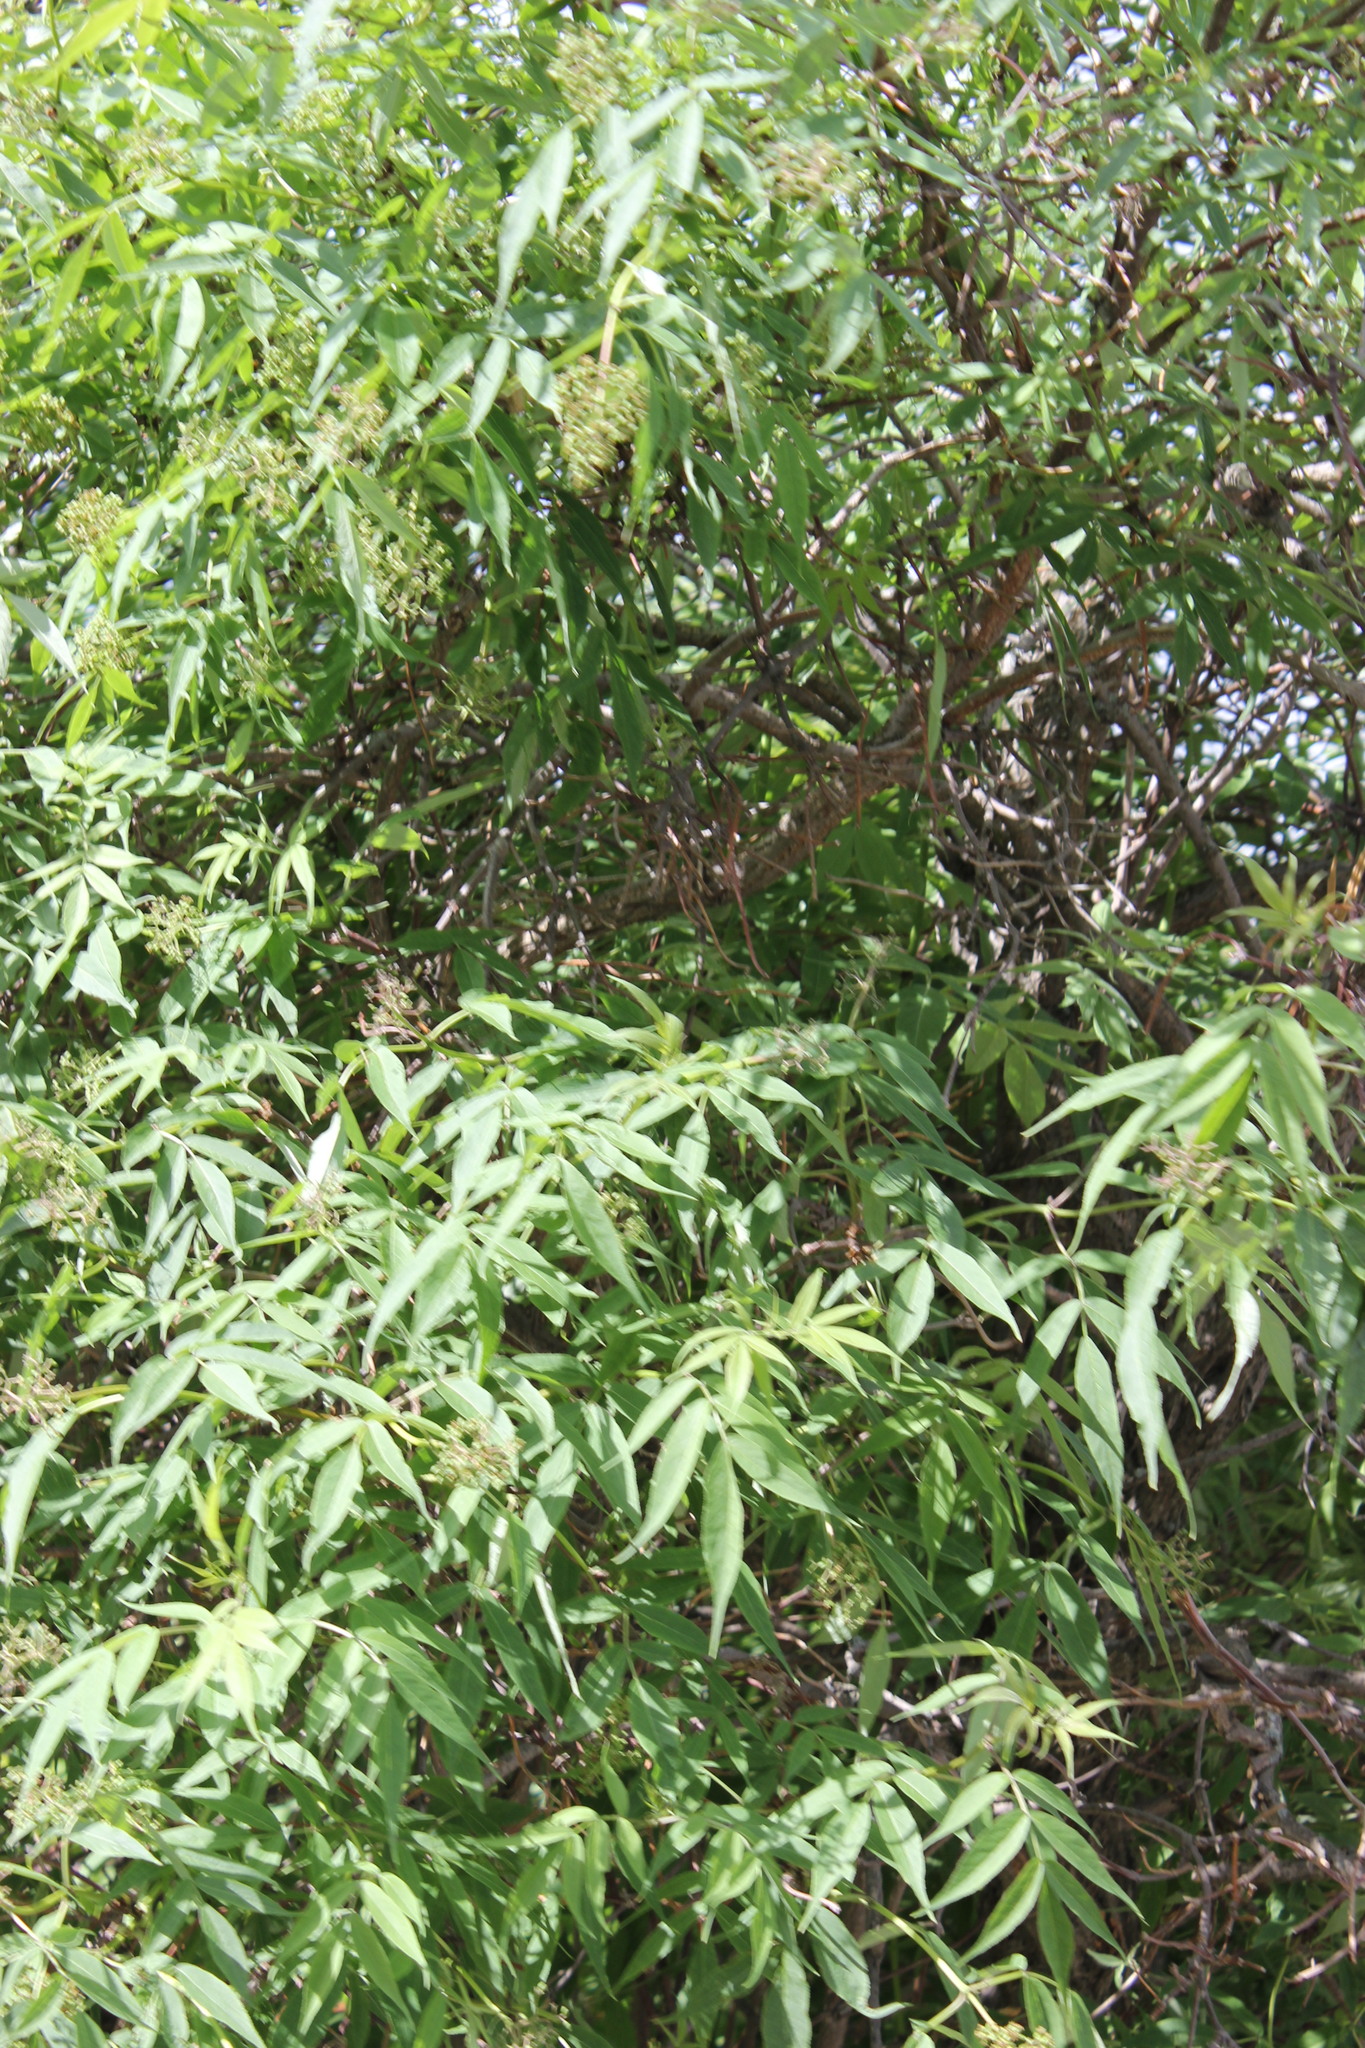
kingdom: Plantae
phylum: Tracheophyta
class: Magnoliopsida
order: Dipsacales
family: Viburnaceae
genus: Sambucus
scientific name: Sambucus sibirica
